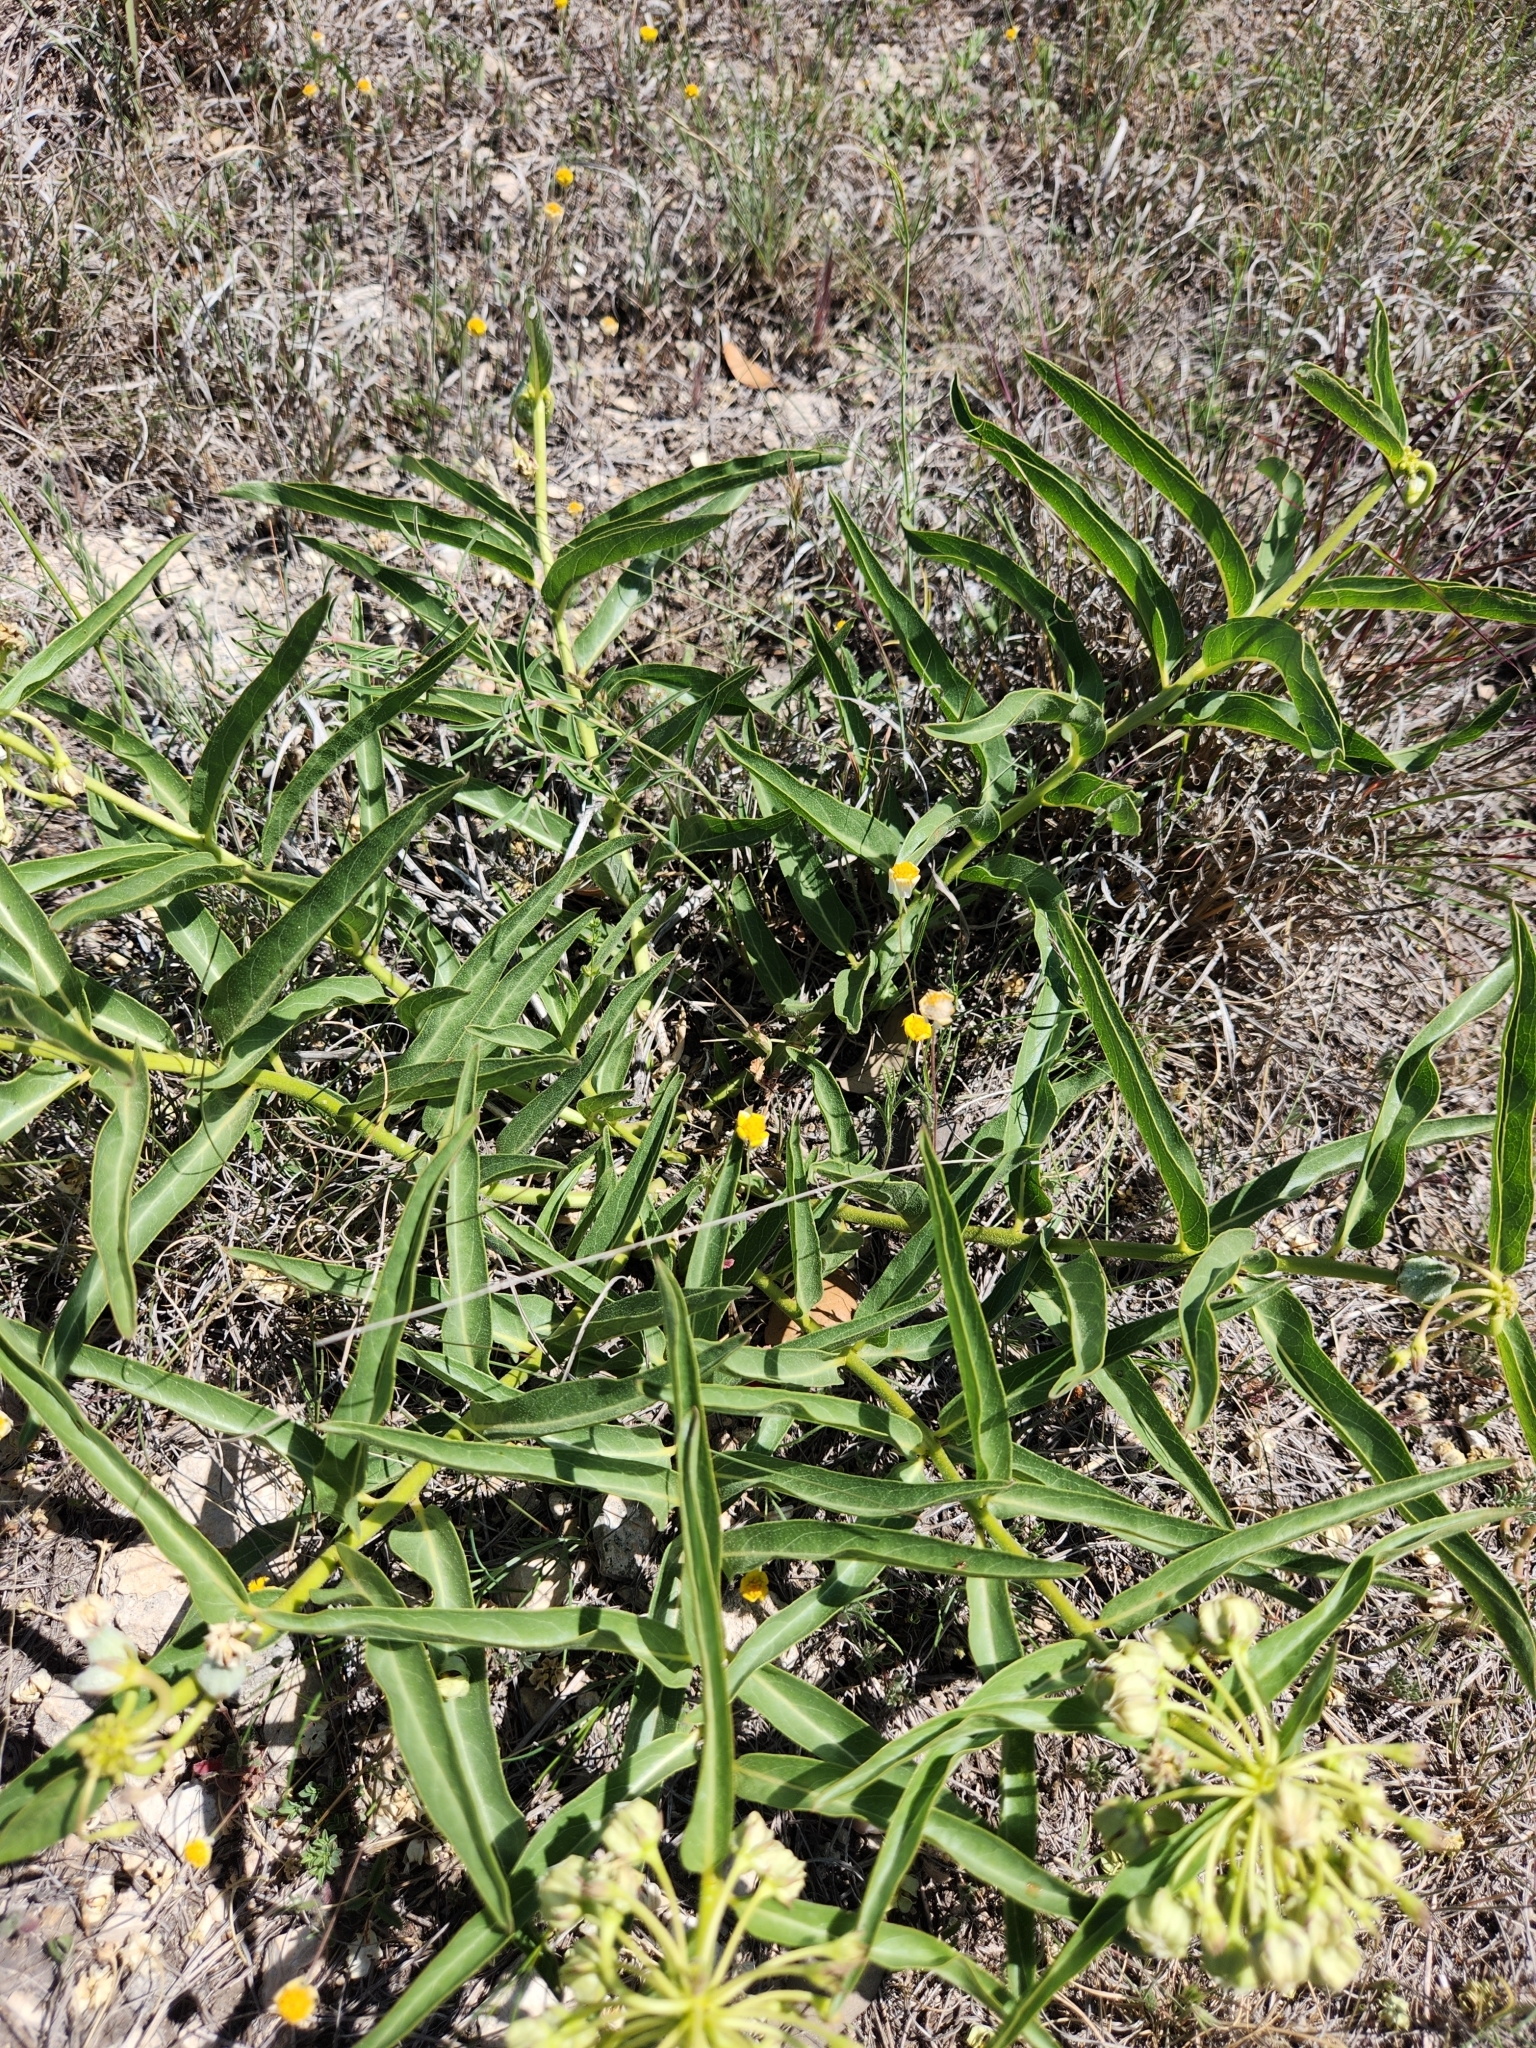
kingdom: Plantae
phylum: Tracheophyta
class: Magnoliopsida
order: Gentianales
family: Apocynaceae
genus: Asclepias
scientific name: Asclepias asperula
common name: Antelope horns
